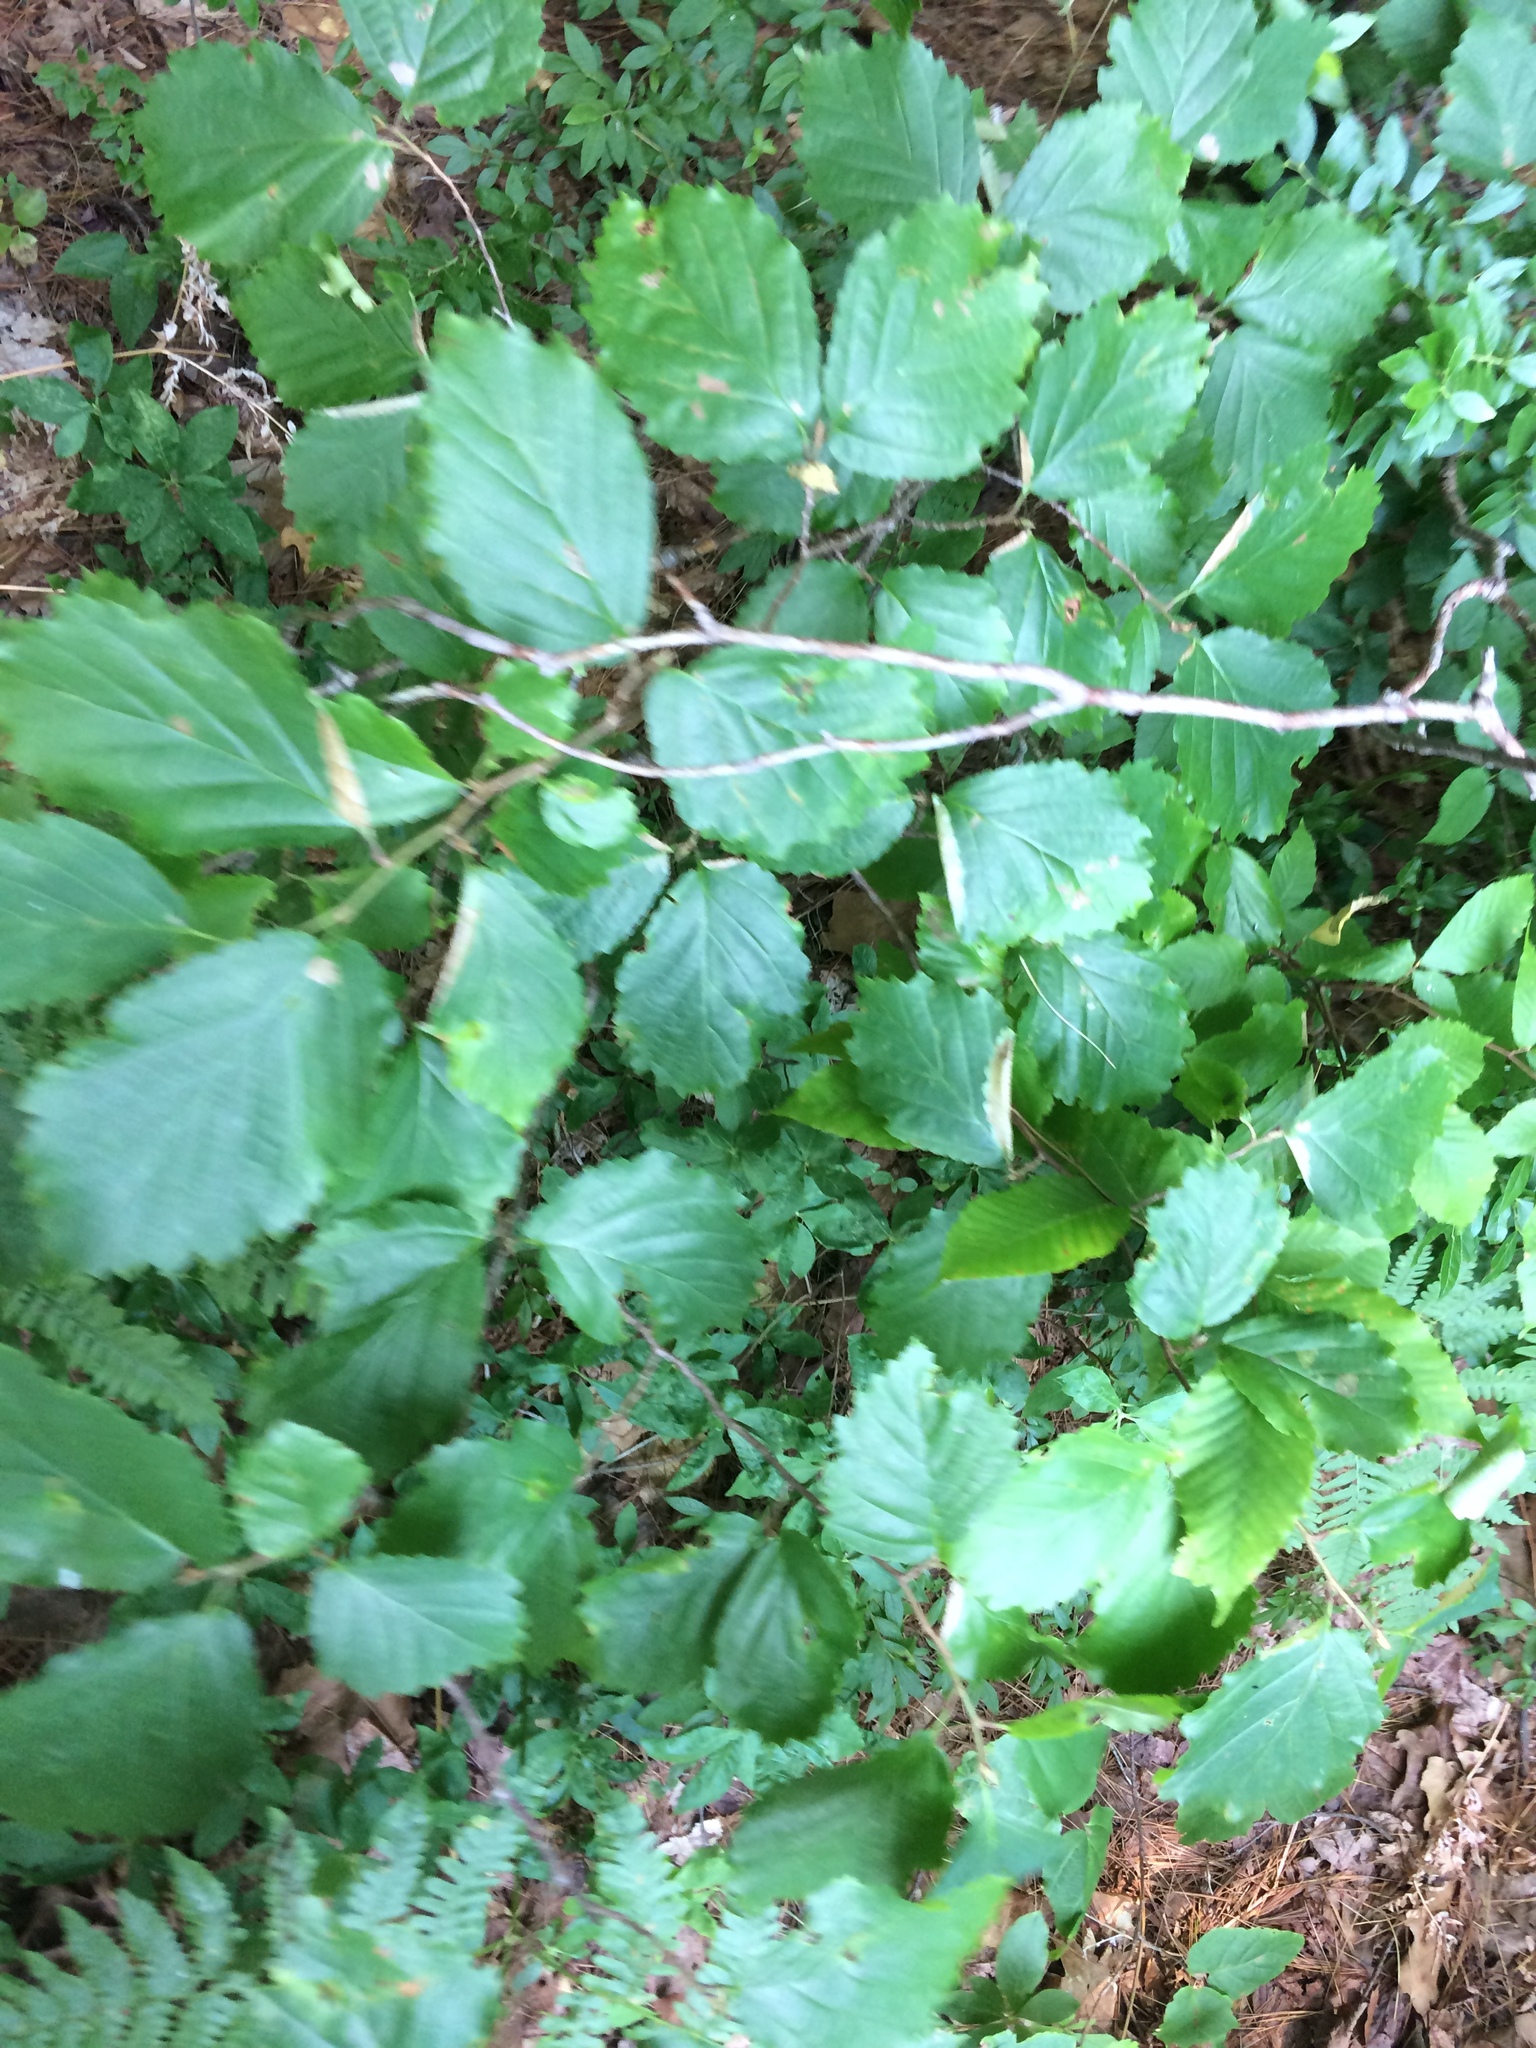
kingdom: Plantae
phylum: Tracheophyta
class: Magnoliopsida
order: Saxifragales
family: Hamamelidaceae
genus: Hamamelis
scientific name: Hamamelis virginiana
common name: Witch-hazel
